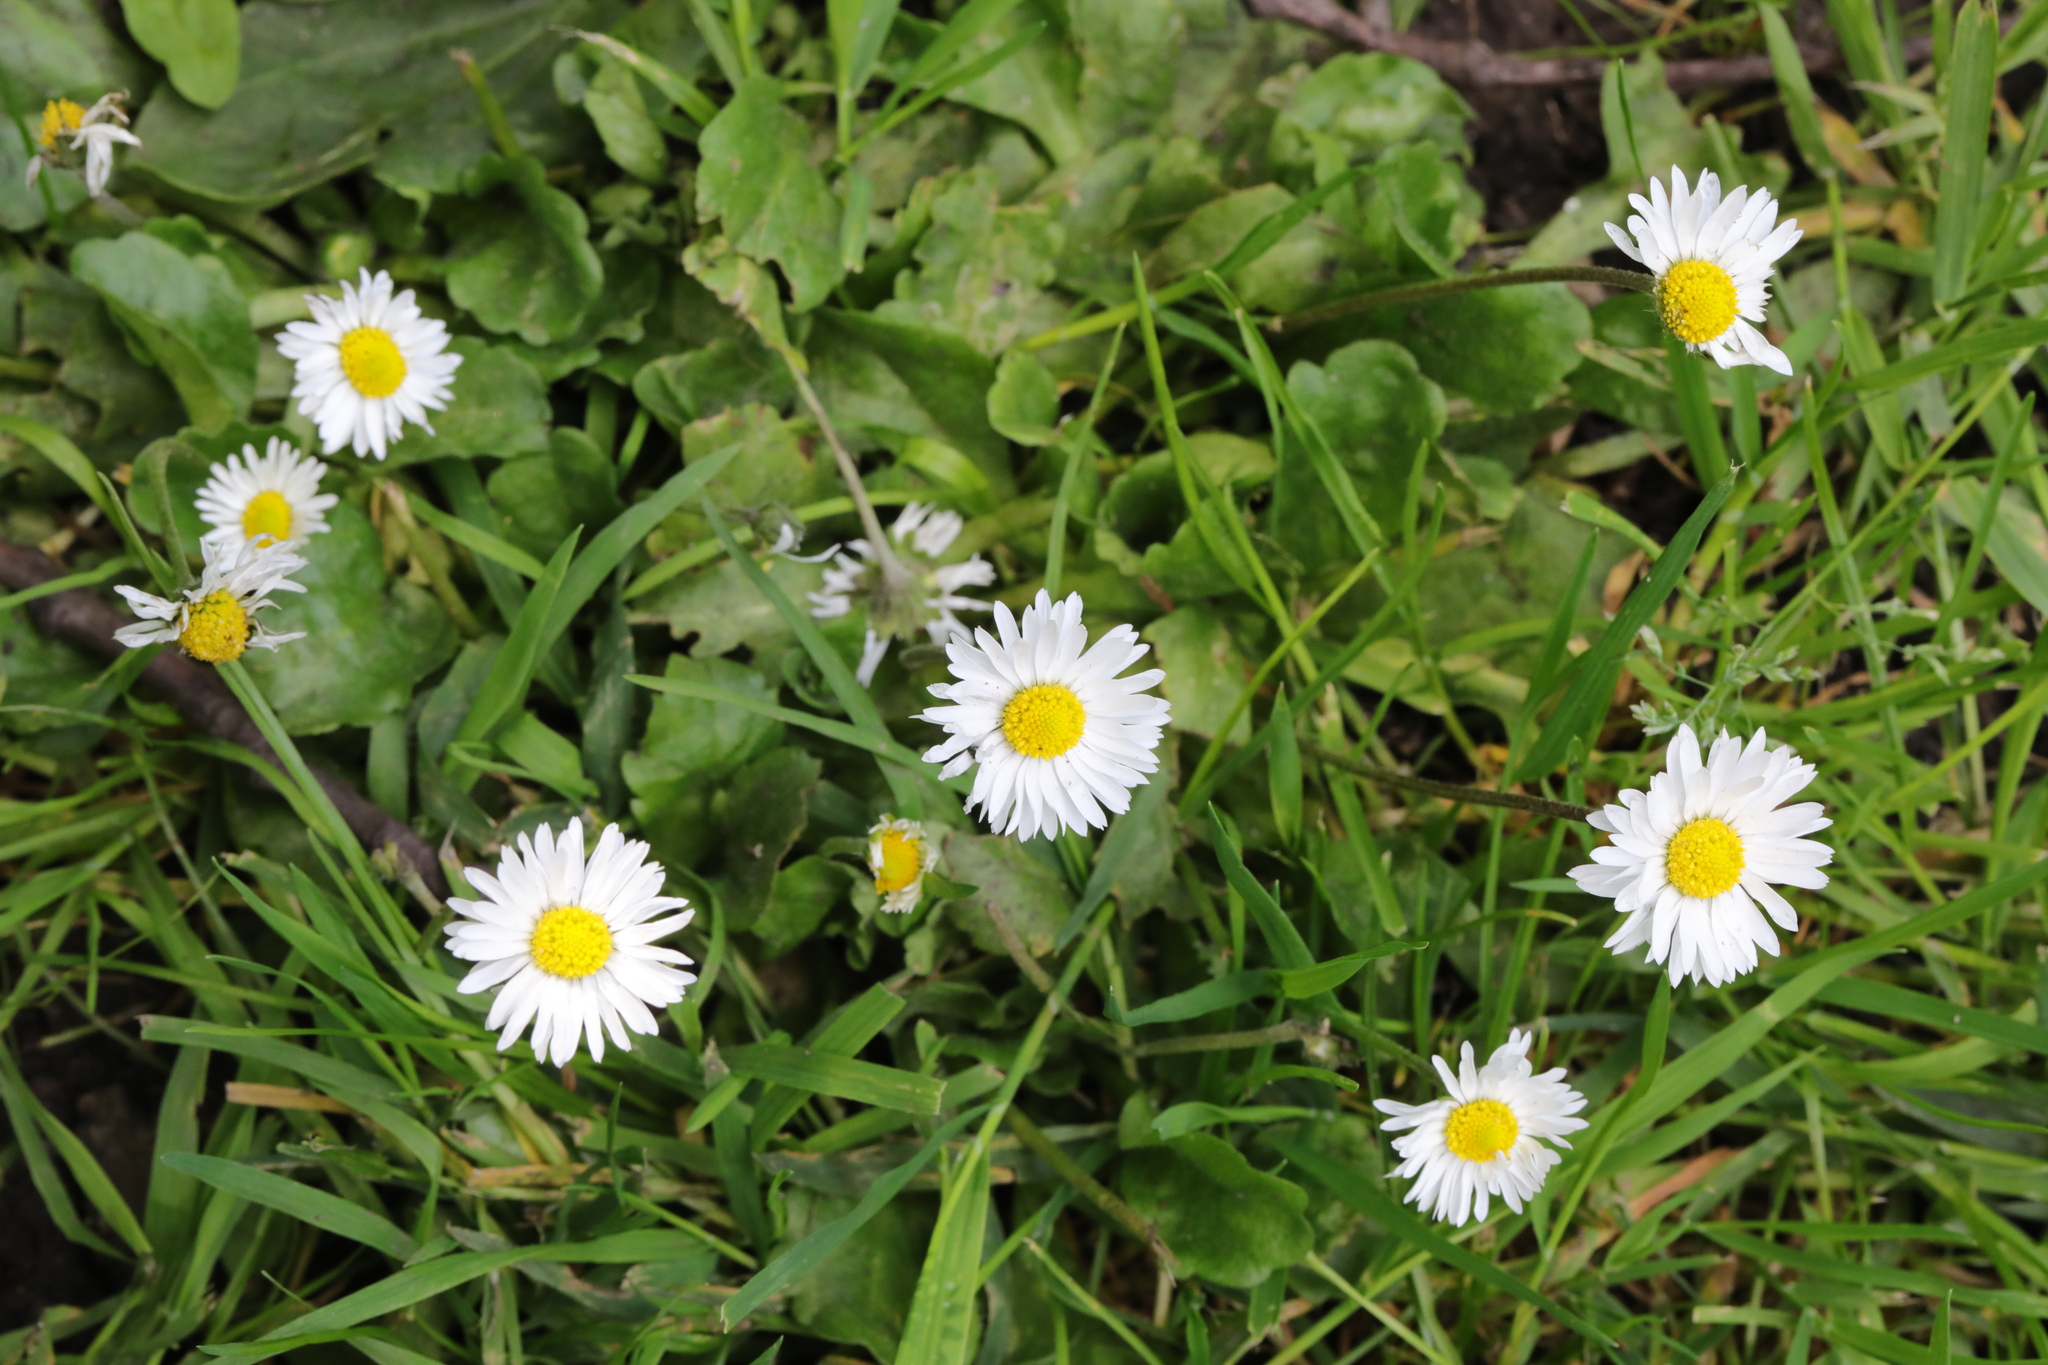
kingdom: Plantae
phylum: Tracheophyta
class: Magnoliopsida
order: Asterales
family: Asteraceae
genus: Bellis
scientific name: Bellis perennis
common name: Lawndaisy
